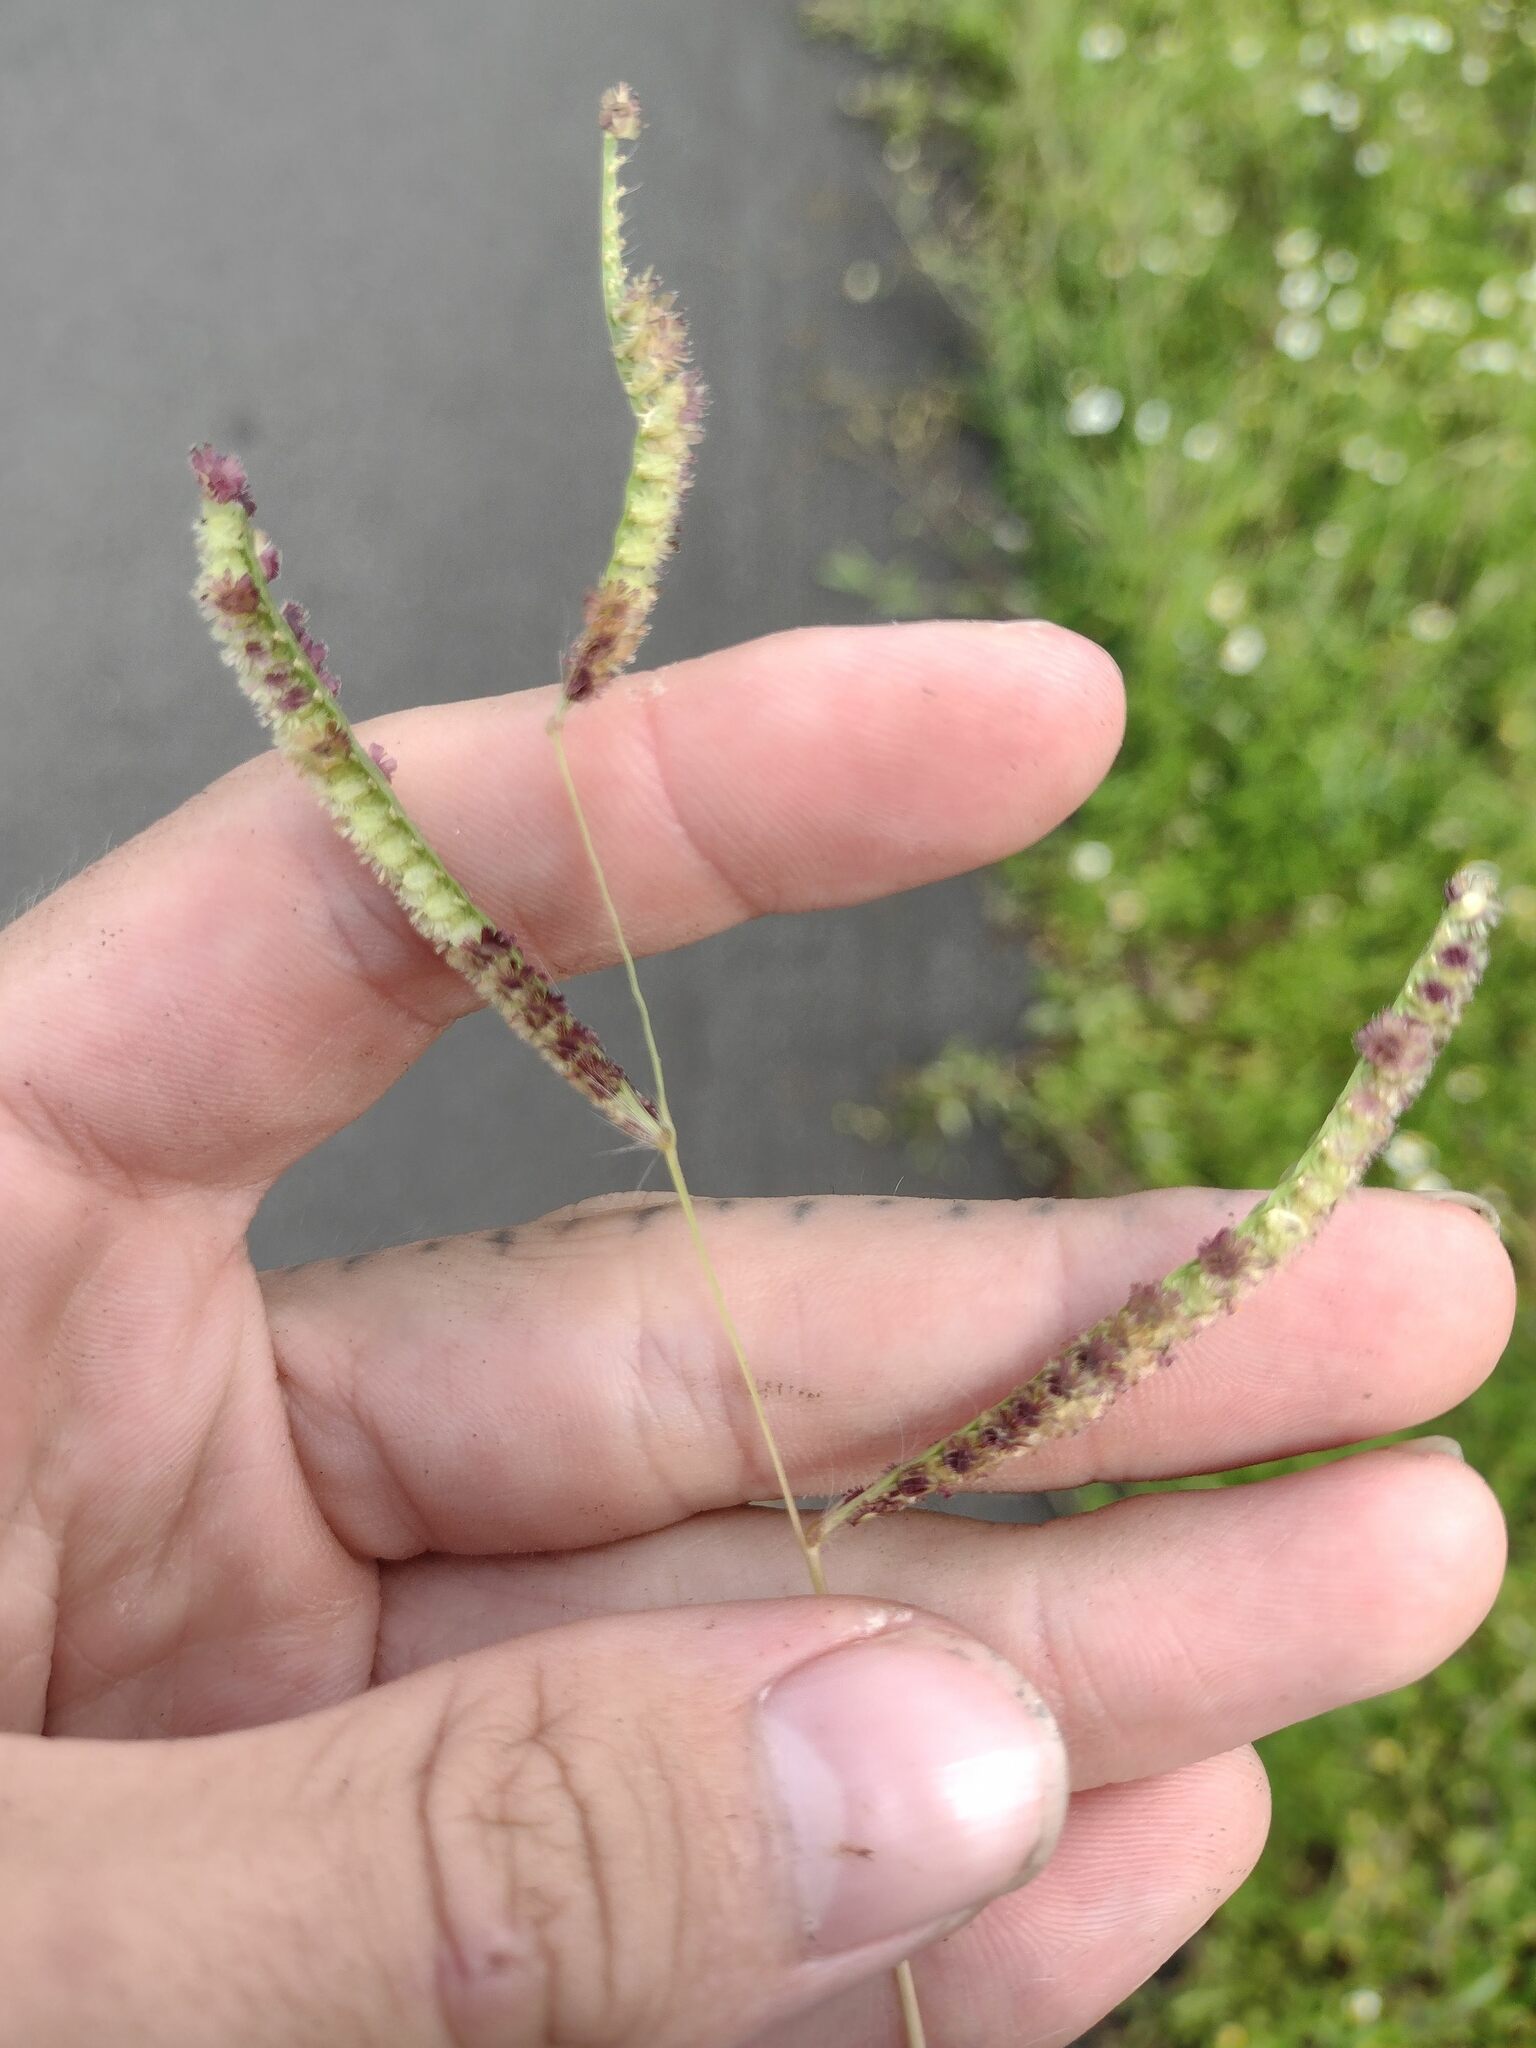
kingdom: Plantae
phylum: Tracheophyta
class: Liliopsida
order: Poales
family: Poaceae
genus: Paspalum
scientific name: Paspalum fimbriatum
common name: Panama crowngrass
